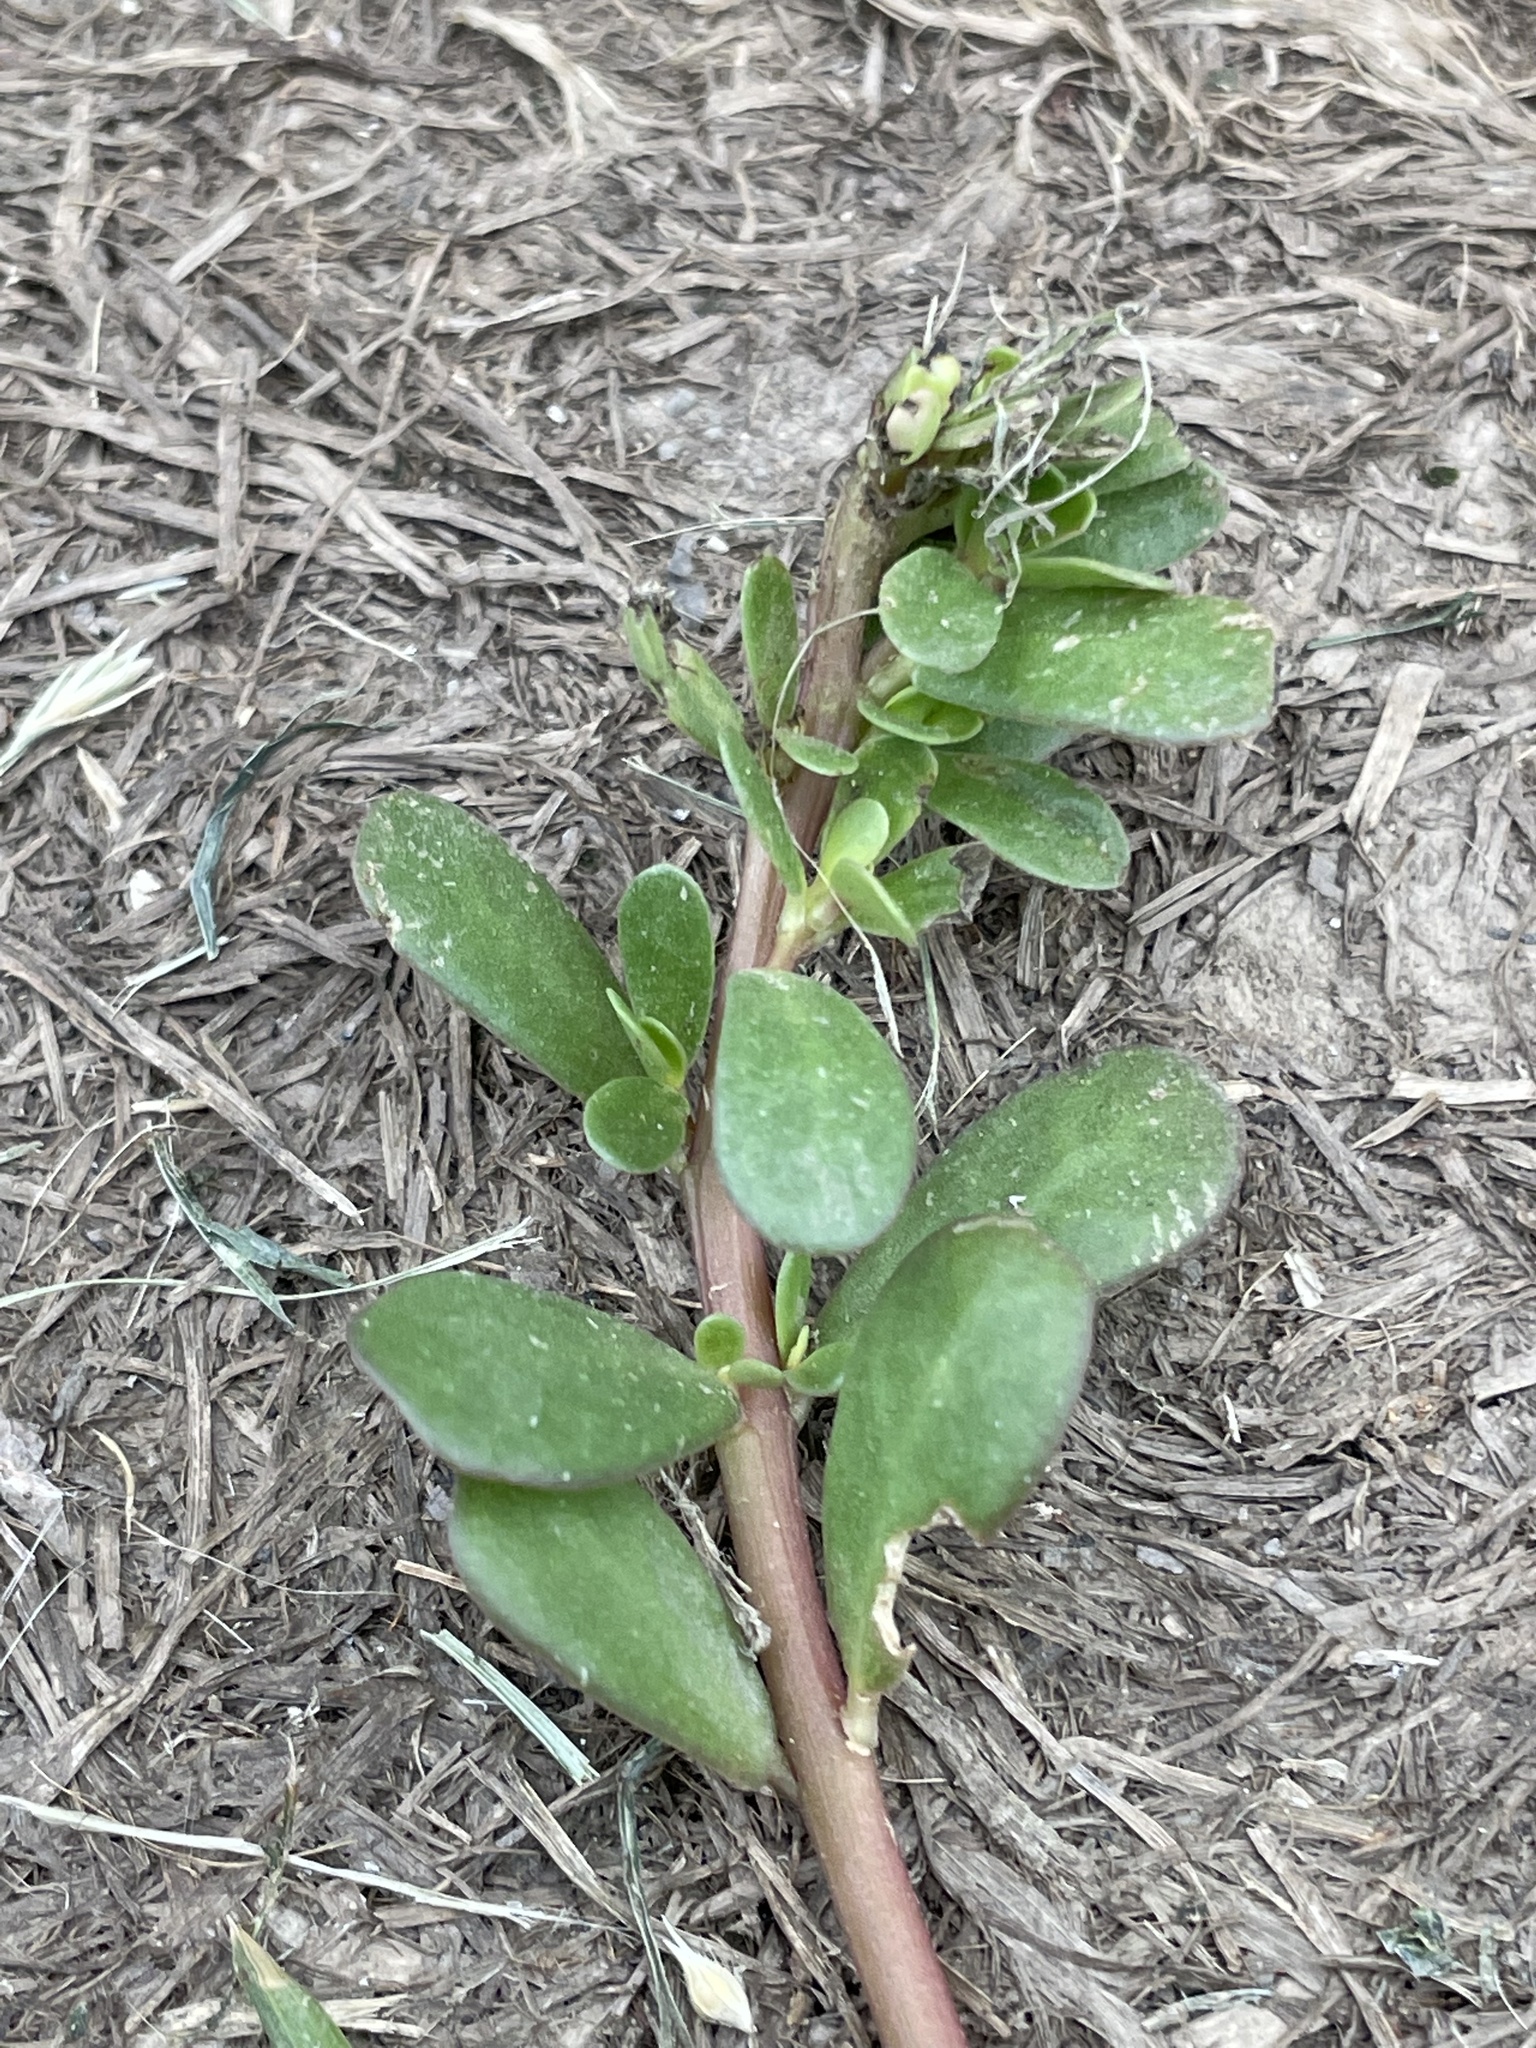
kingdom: Plantae
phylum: Tracheophyta
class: Magnoliopsida
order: Caryophyllales
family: Portulacaceae
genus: Portulaca
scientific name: Portulaca oleracea
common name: Common purslane
